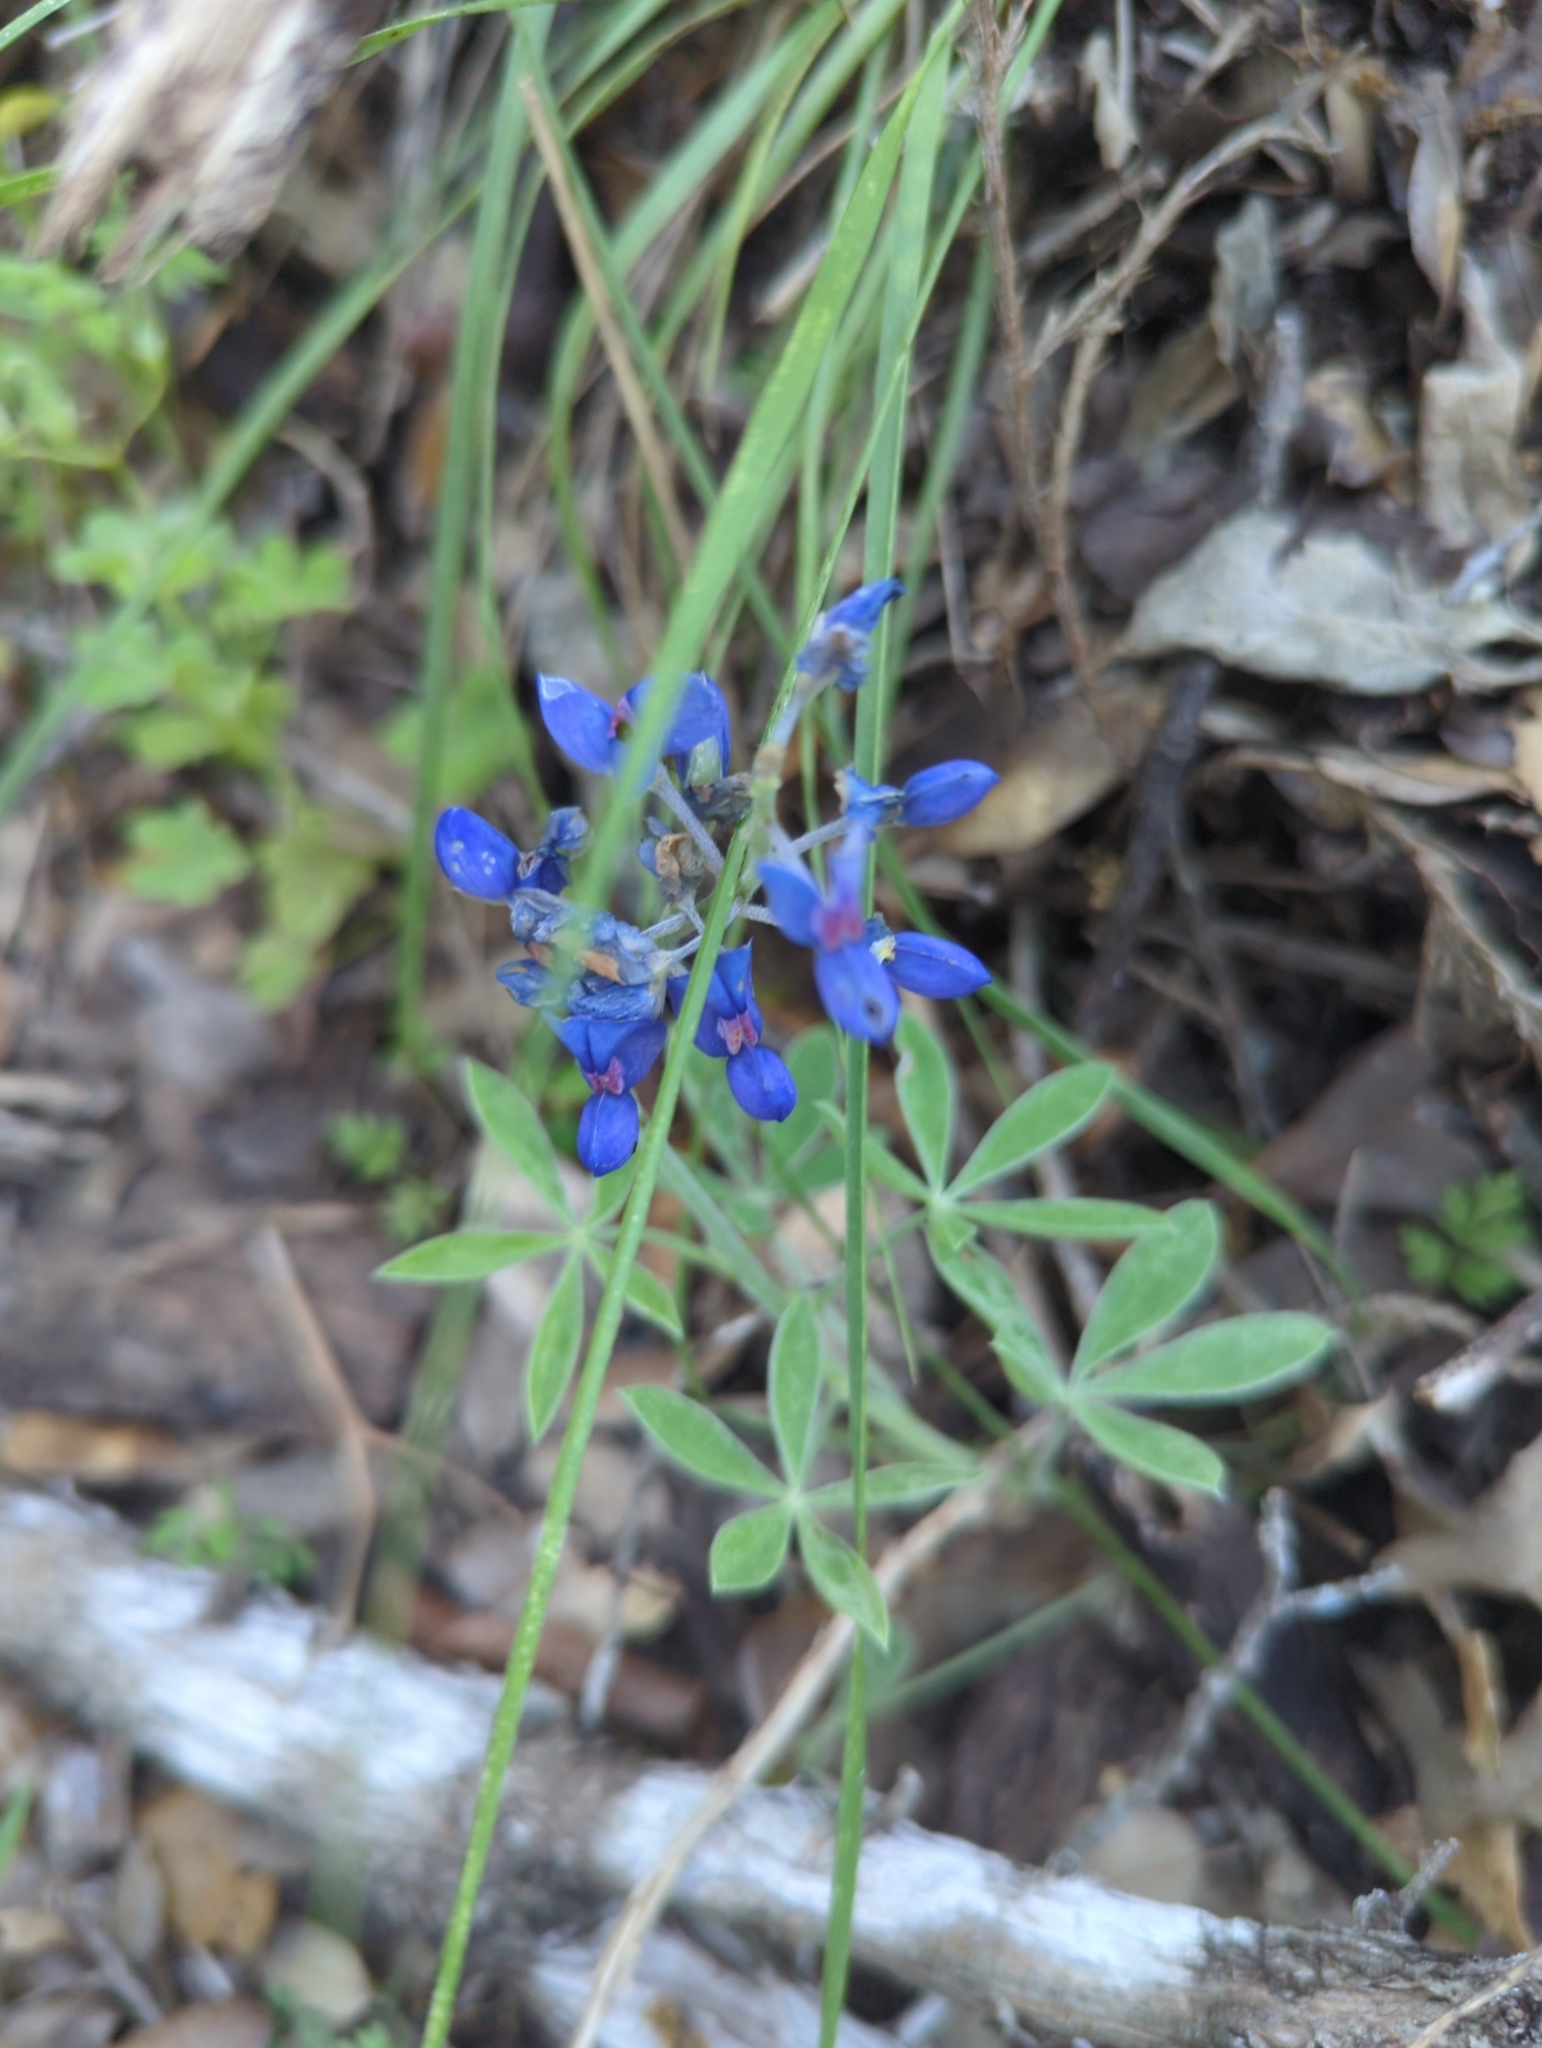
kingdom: Plantae
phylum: Tracheophyta
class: Magnoliopsida
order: Fabales
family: Fabaceae
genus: Lupinus
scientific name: Lupinus texensis
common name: Texas bluebonnet
